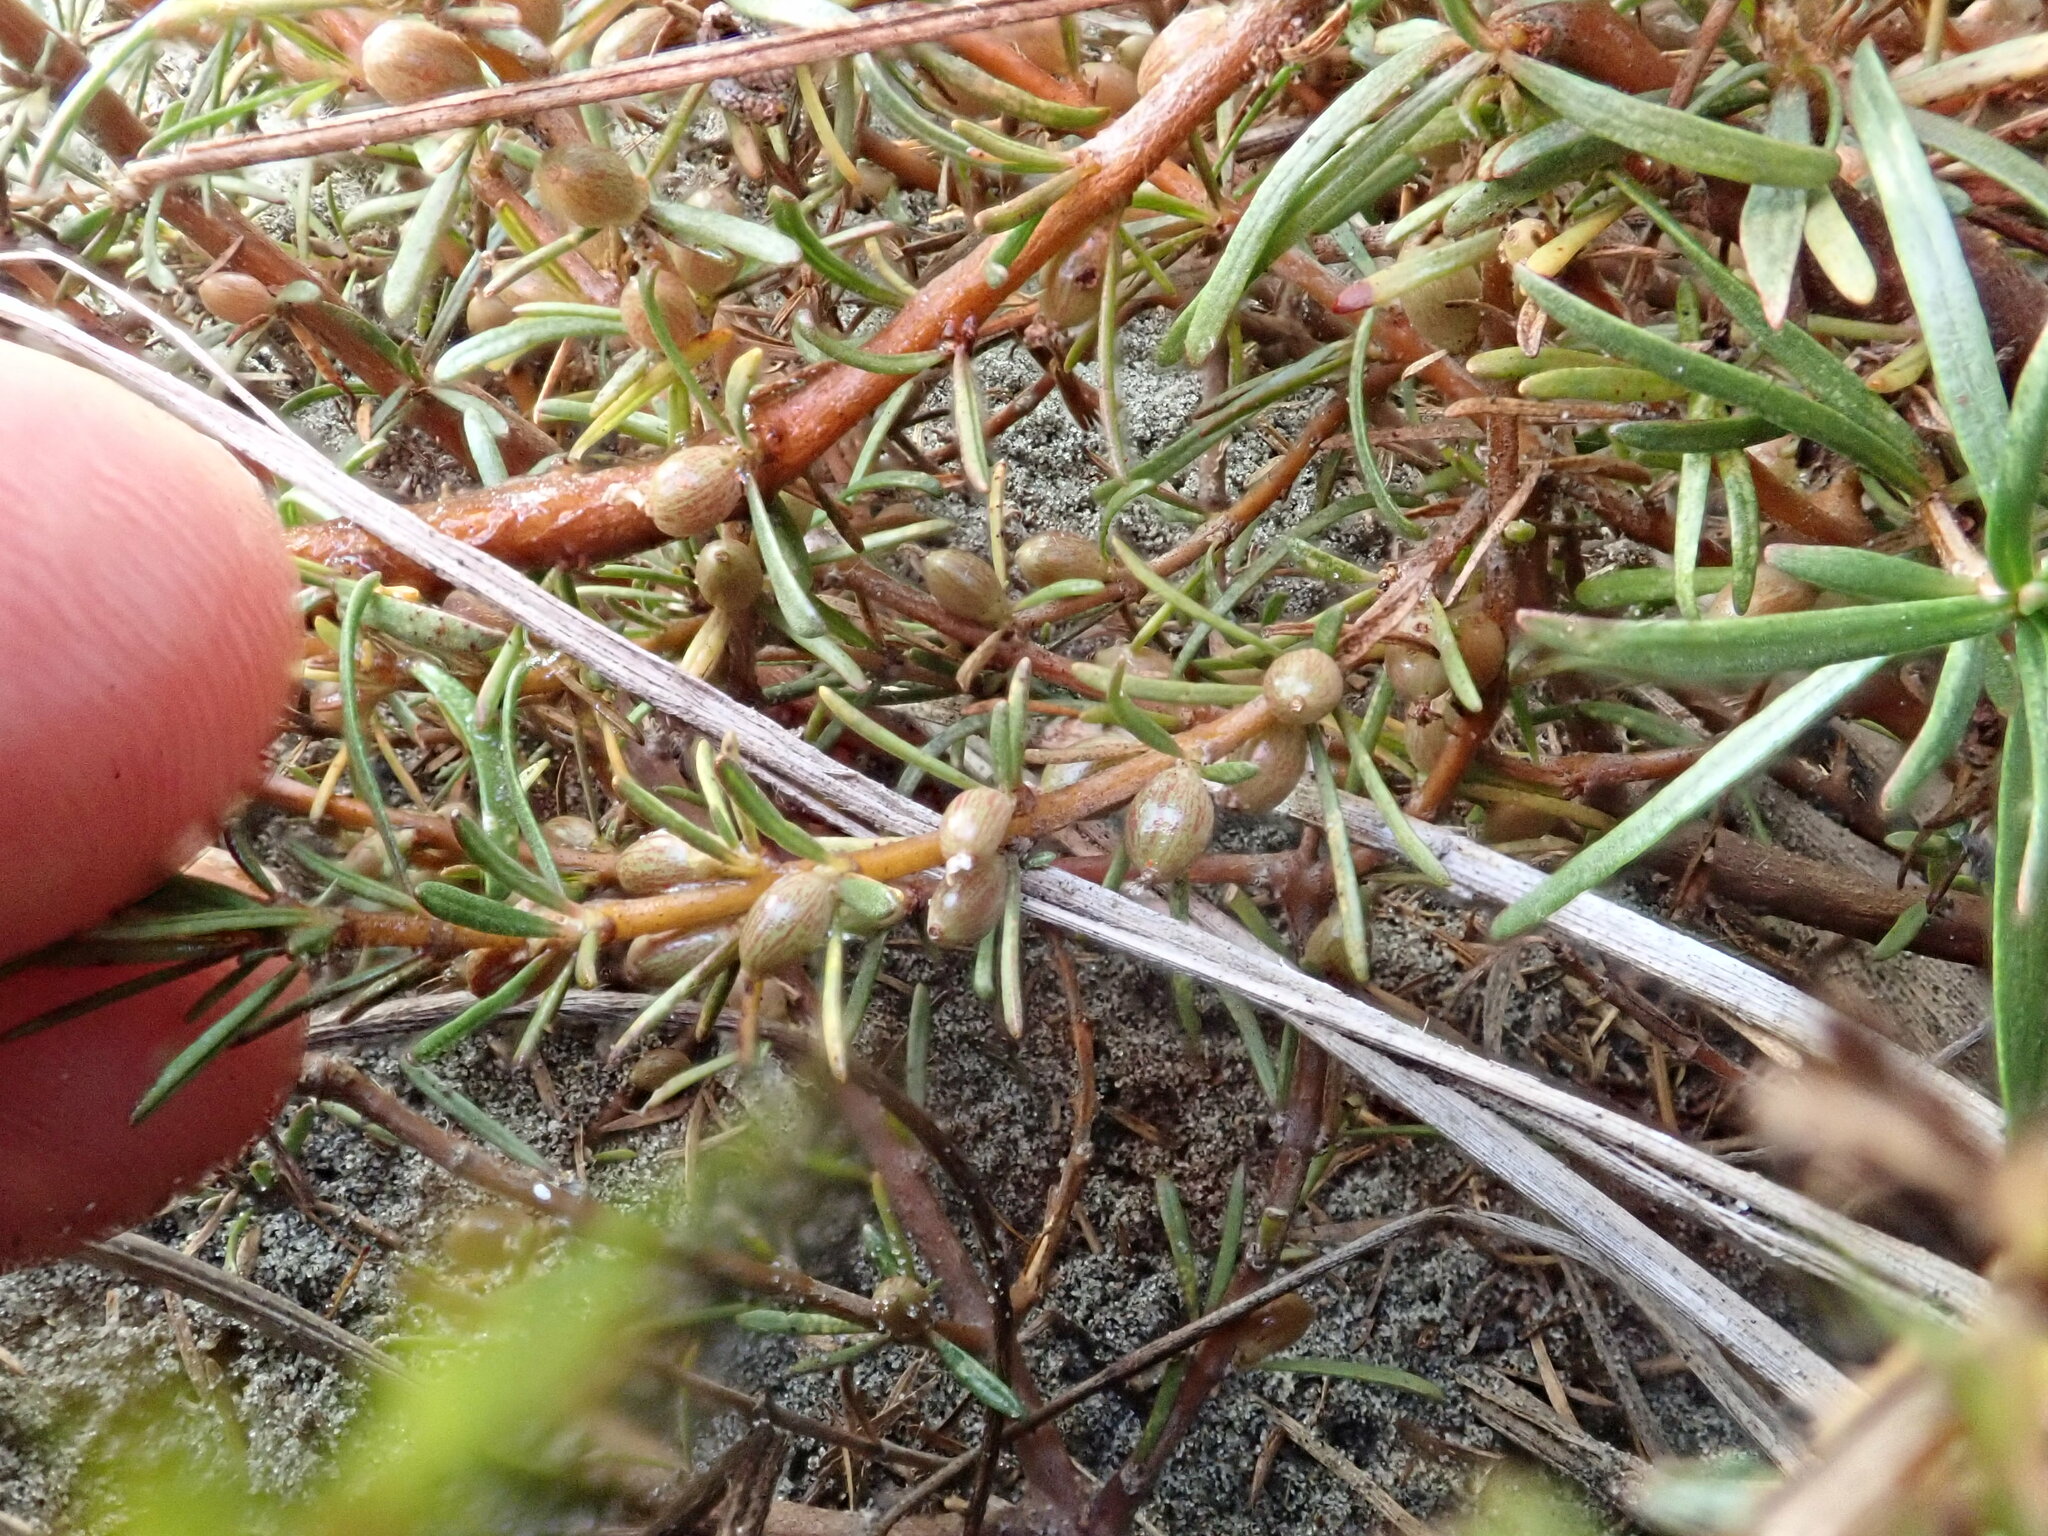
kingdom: Plantae
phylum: Tracheophyta
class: Magnoliopsida
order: Gentianales
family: Rubiaceae
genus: Coprosma
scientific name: Coprosma acerosa
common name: Sand coprosma
